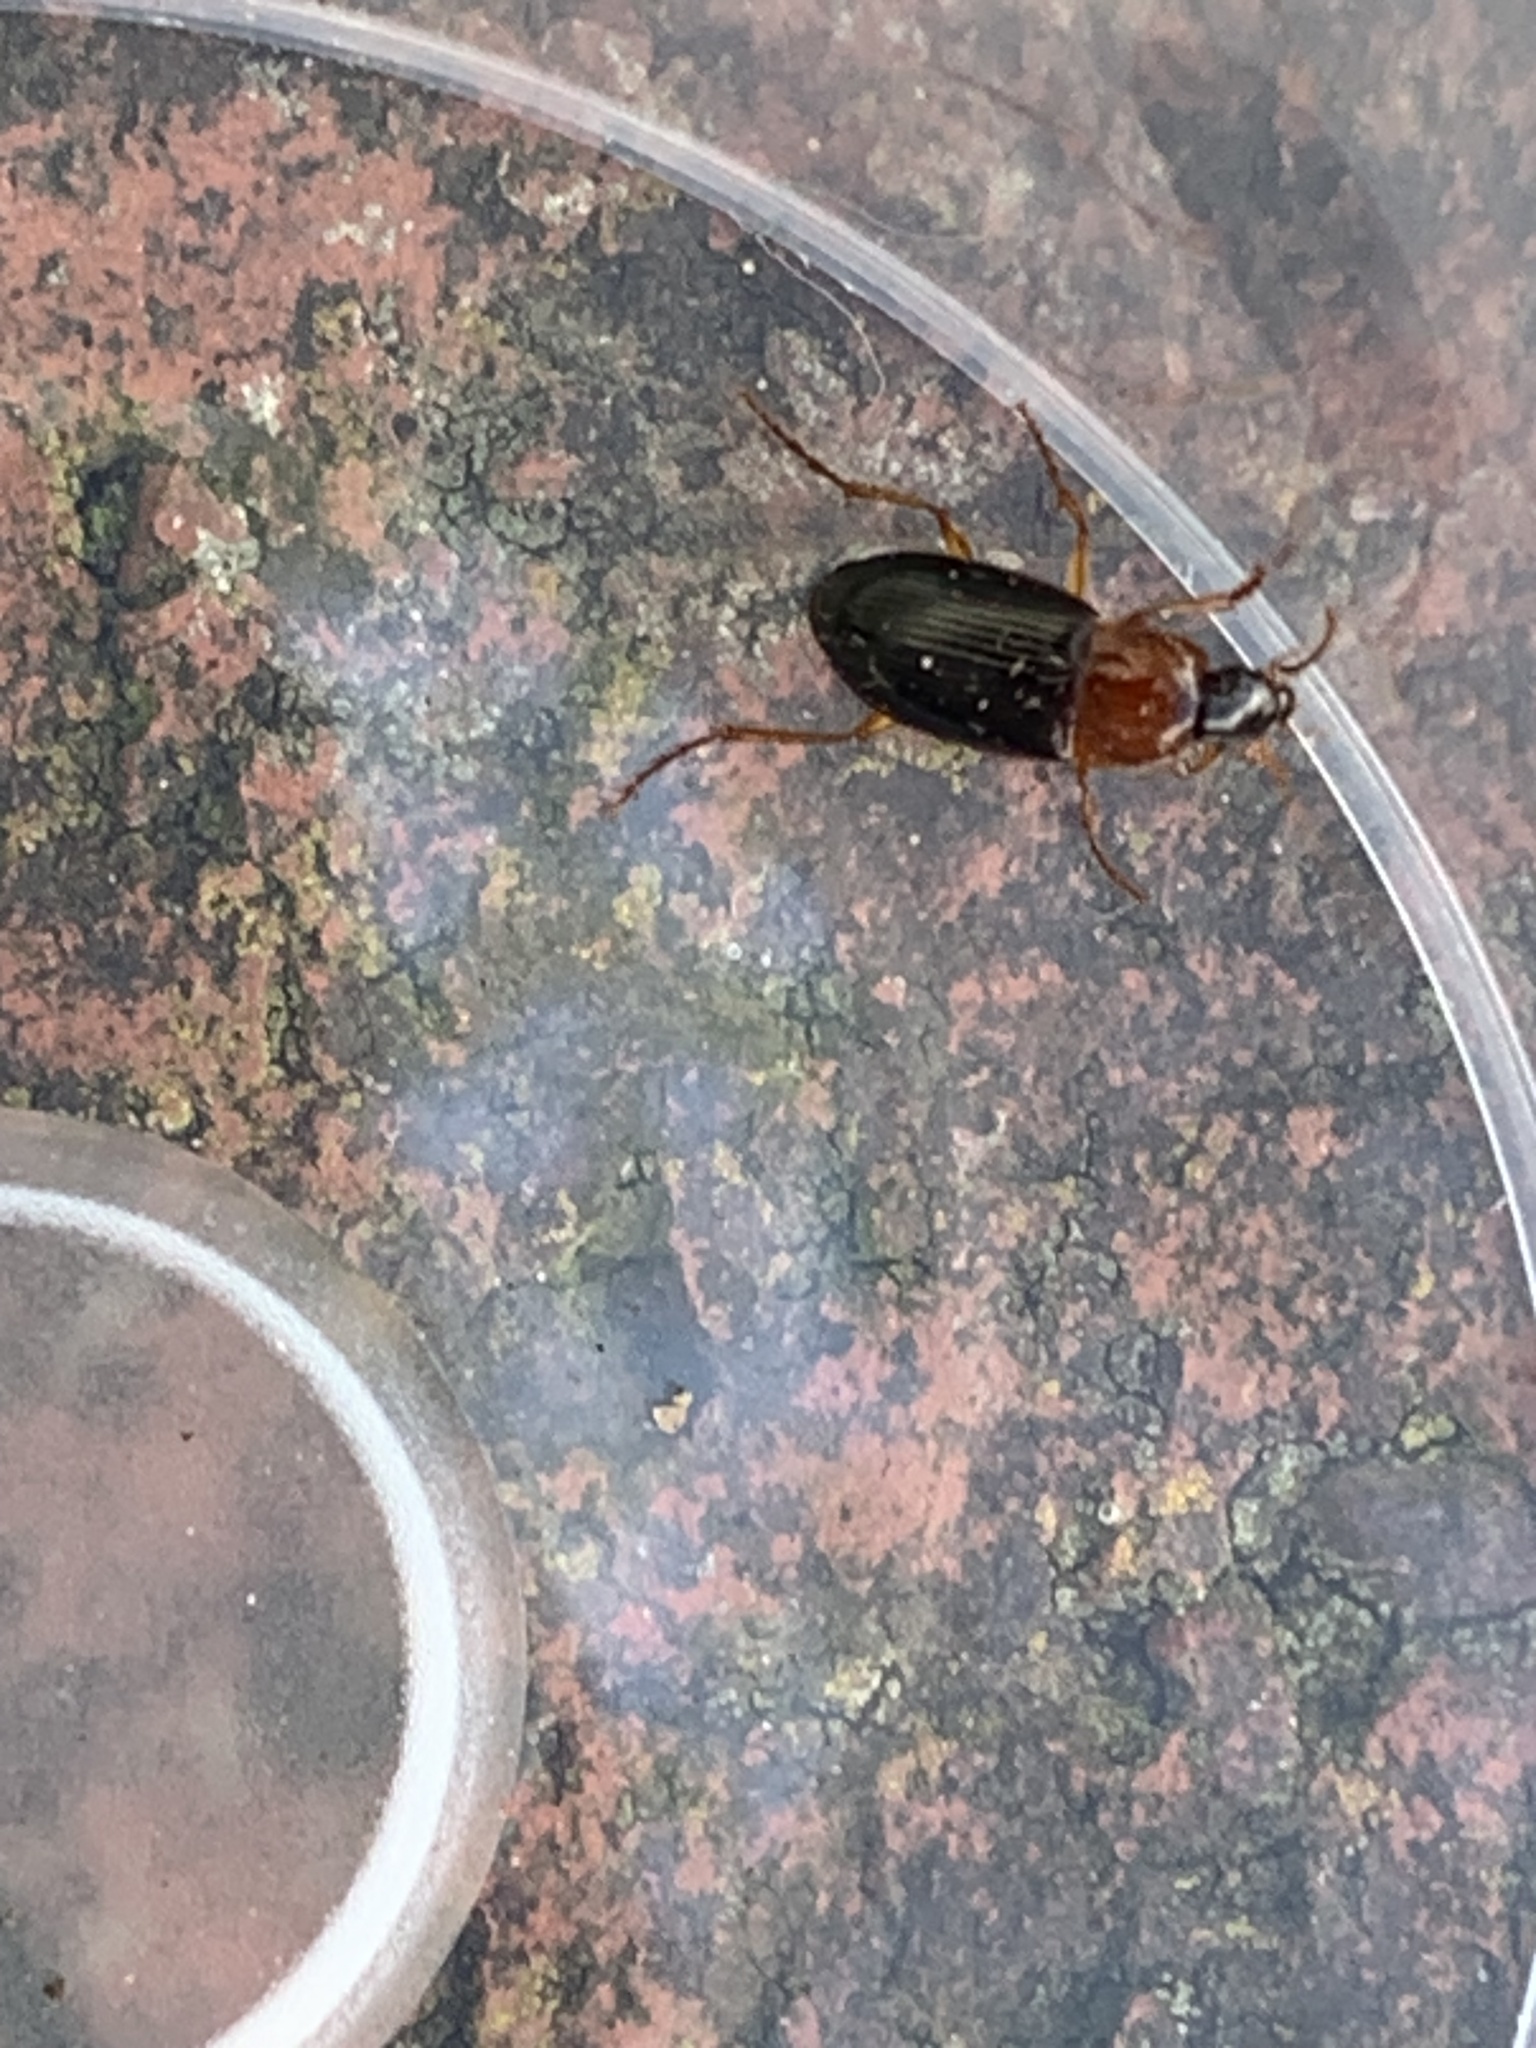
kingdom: Animalia
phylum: Arthropoda
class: Insecta
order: Coleoptera
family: Carabidae
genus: Calathus
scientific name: Calathus melanocephalus
